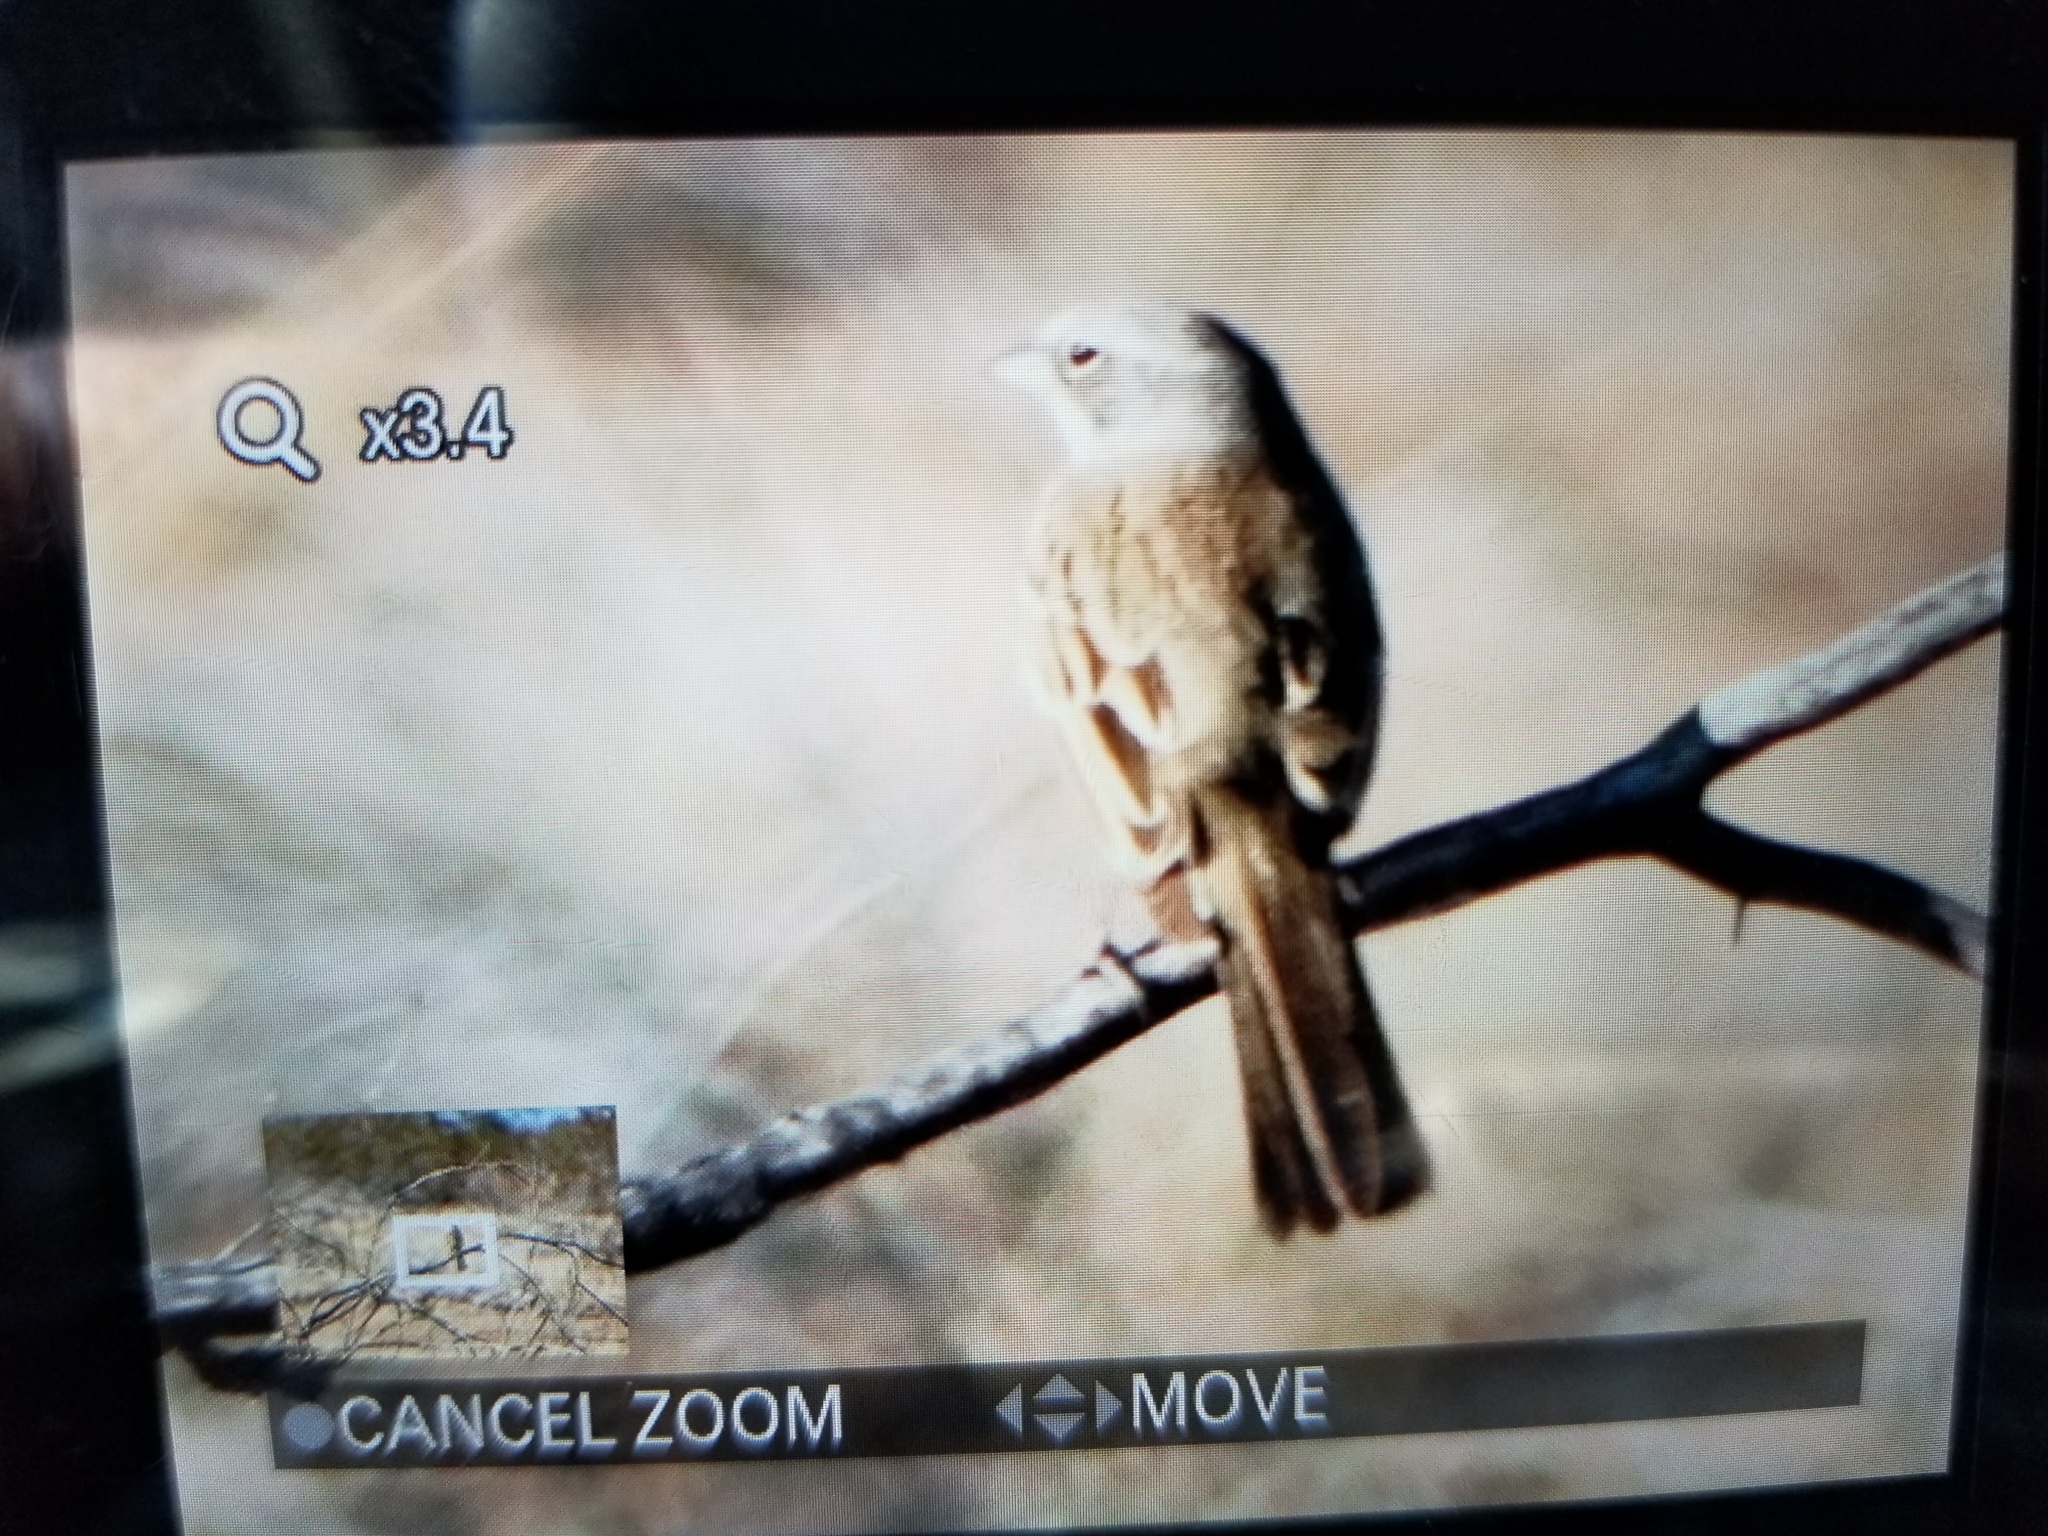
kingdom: Animalia
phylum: Chordata
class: Aves
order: Passeriformes
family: Passerellidae
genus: Artemisiospiza
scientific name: Artemisiospiza
